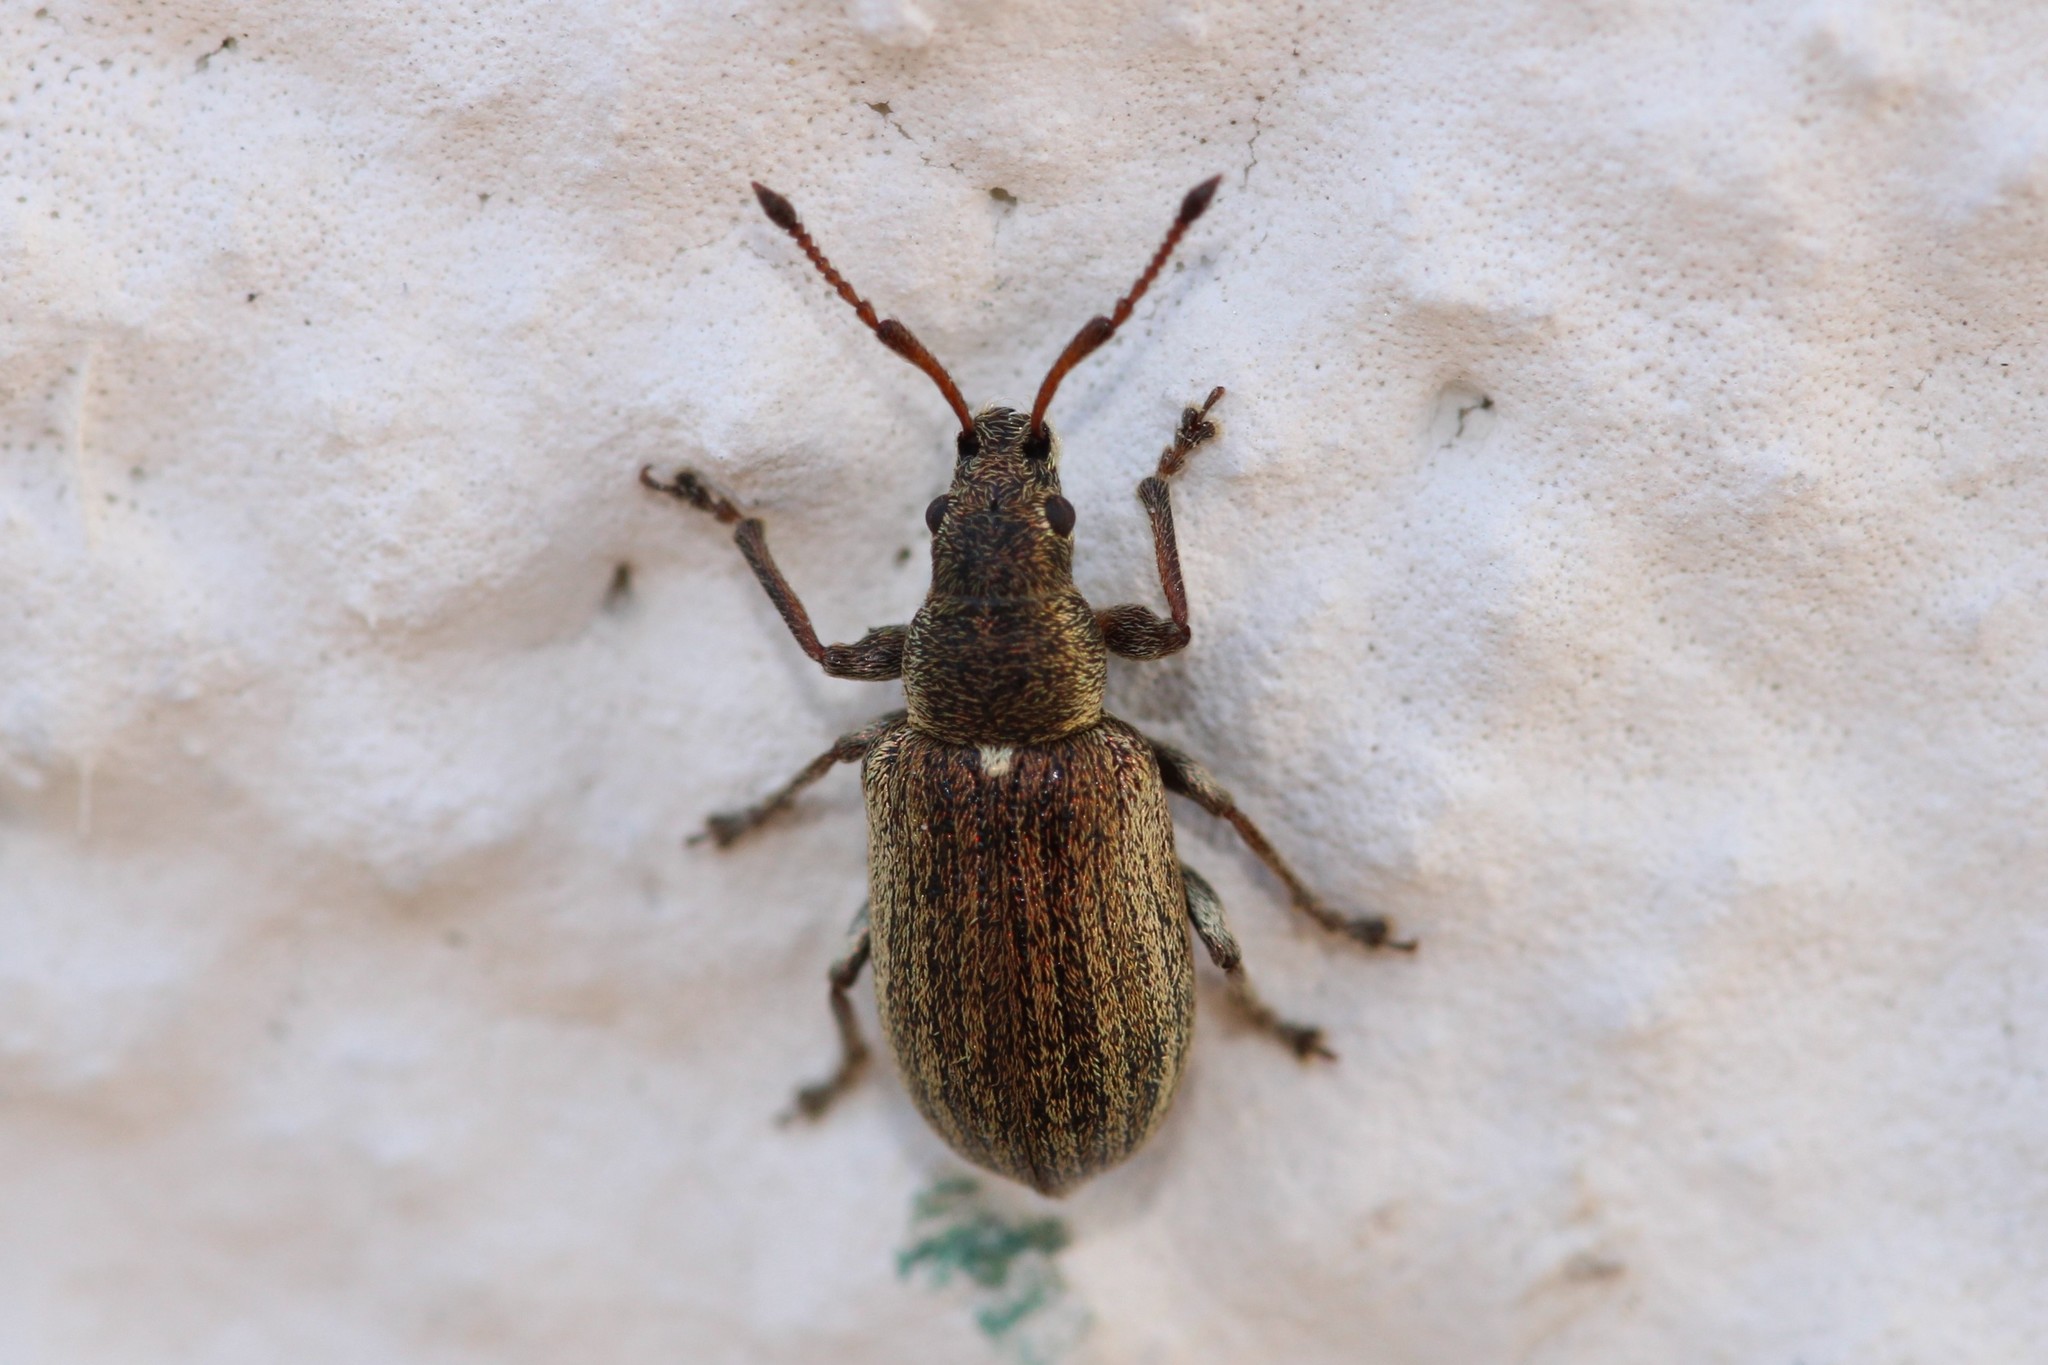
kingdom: Animalia
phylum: Arthropoda
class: Insecta
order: Coleoptera
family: Curculionidae
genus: Phyllobius
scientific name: Phyllobius pyri
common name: Common leaf weevil
